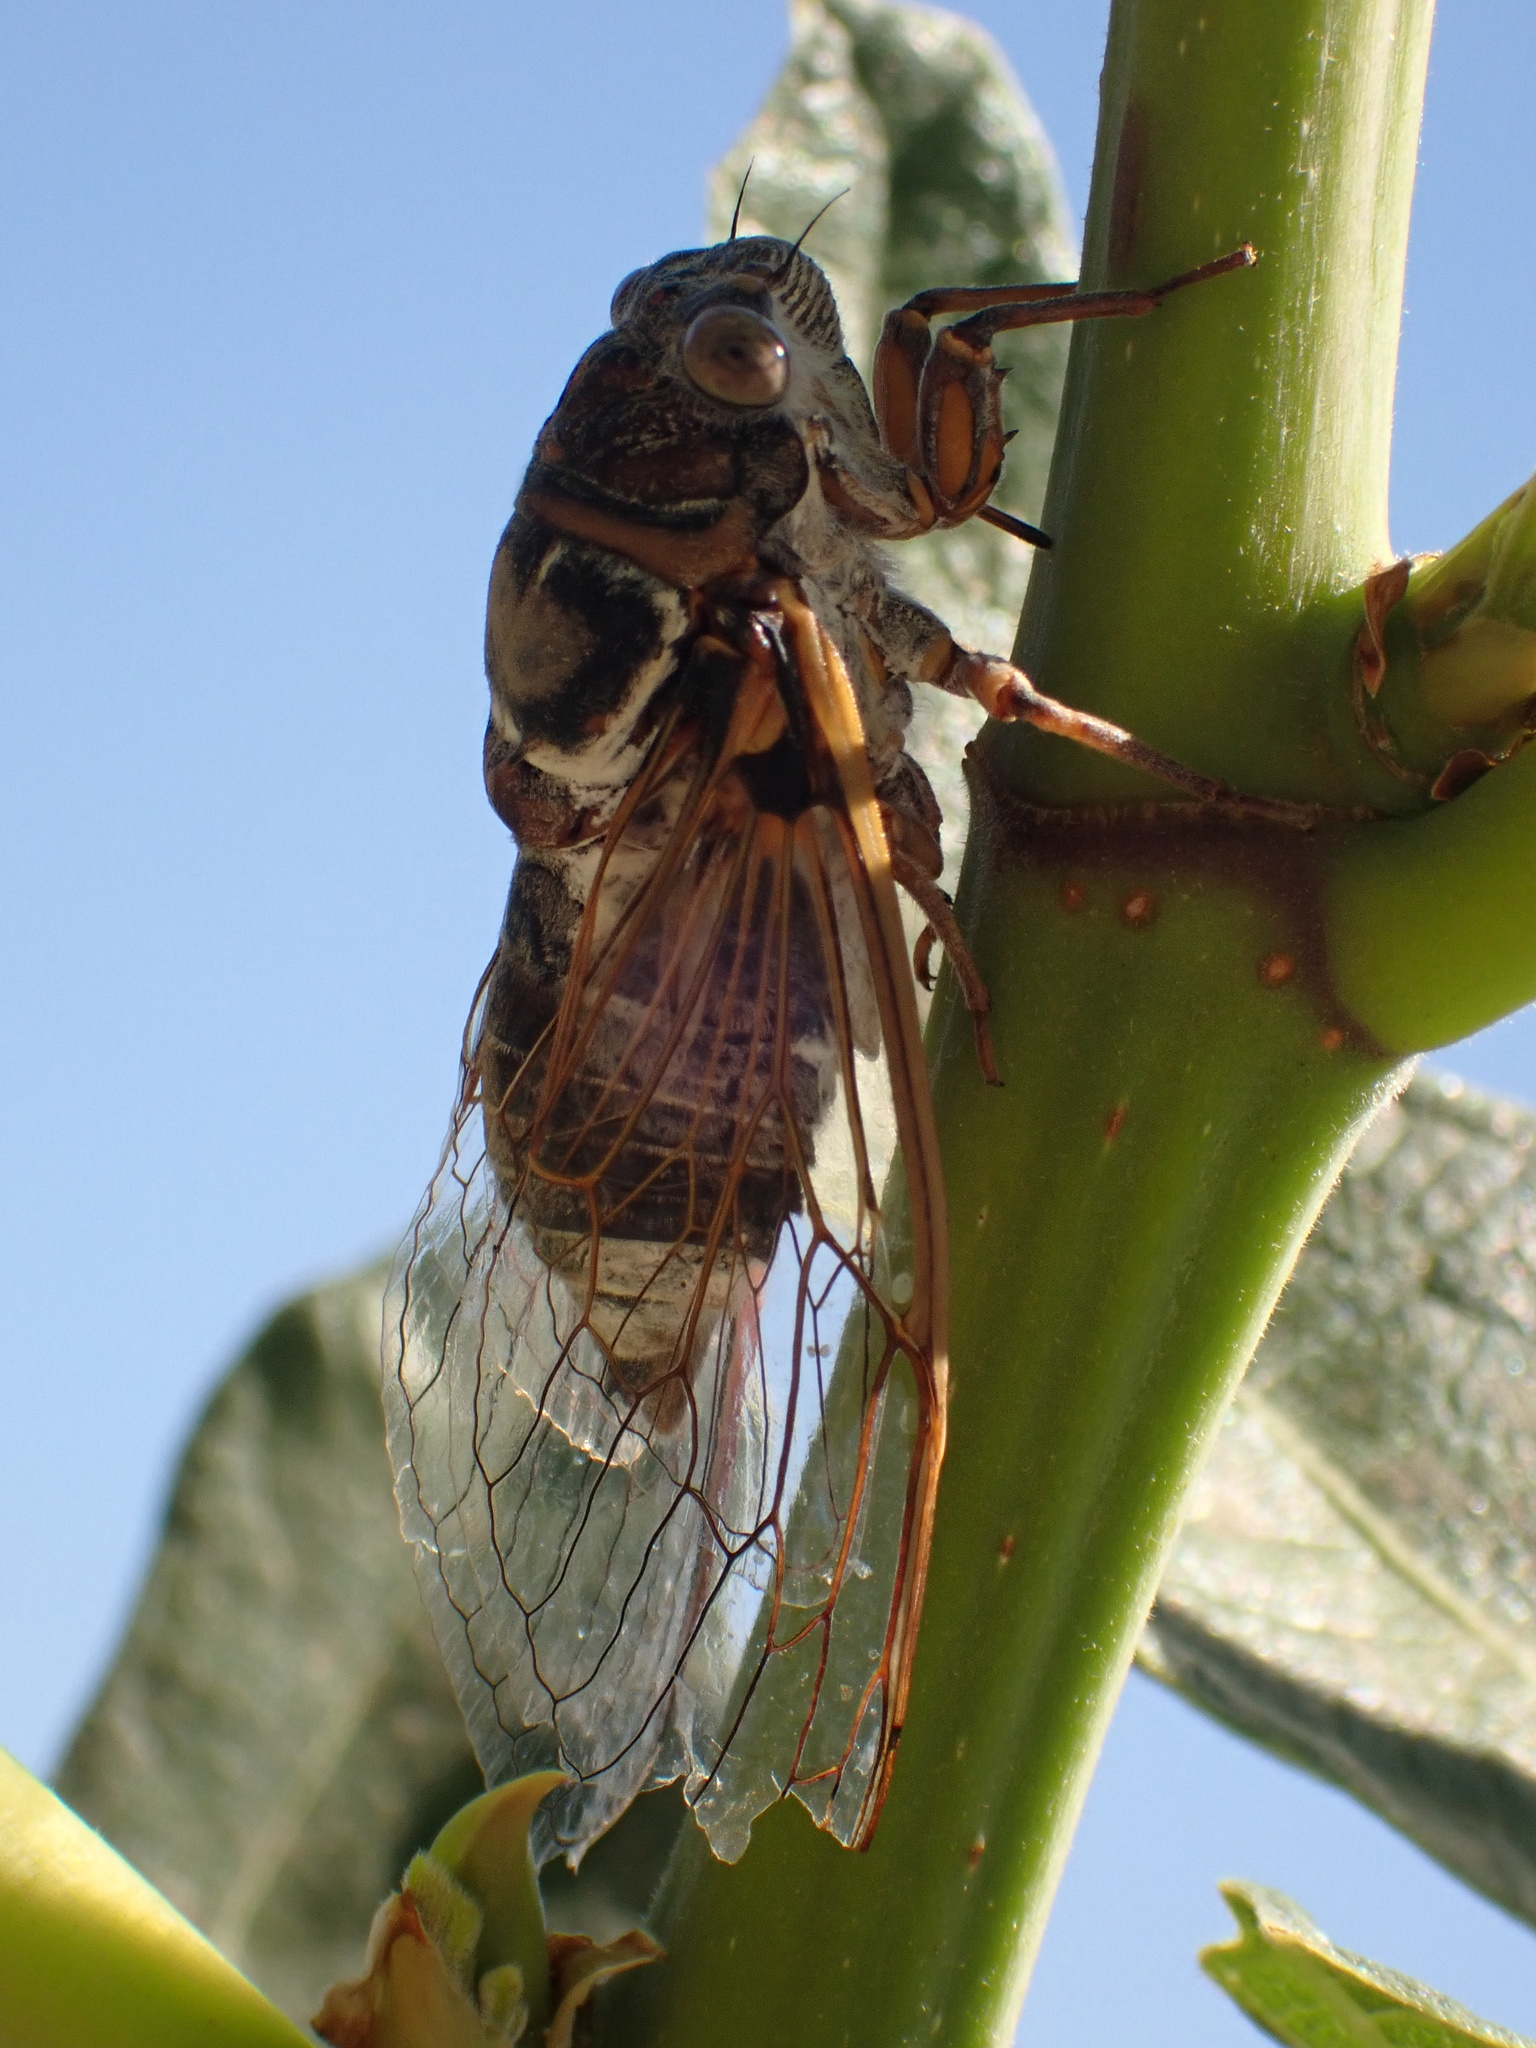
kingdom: Animalia
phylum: Arthropoda
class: Insecta
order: Hemiptera
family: Cicadidae
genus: Lyristes
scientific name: Lyristes plebejus
